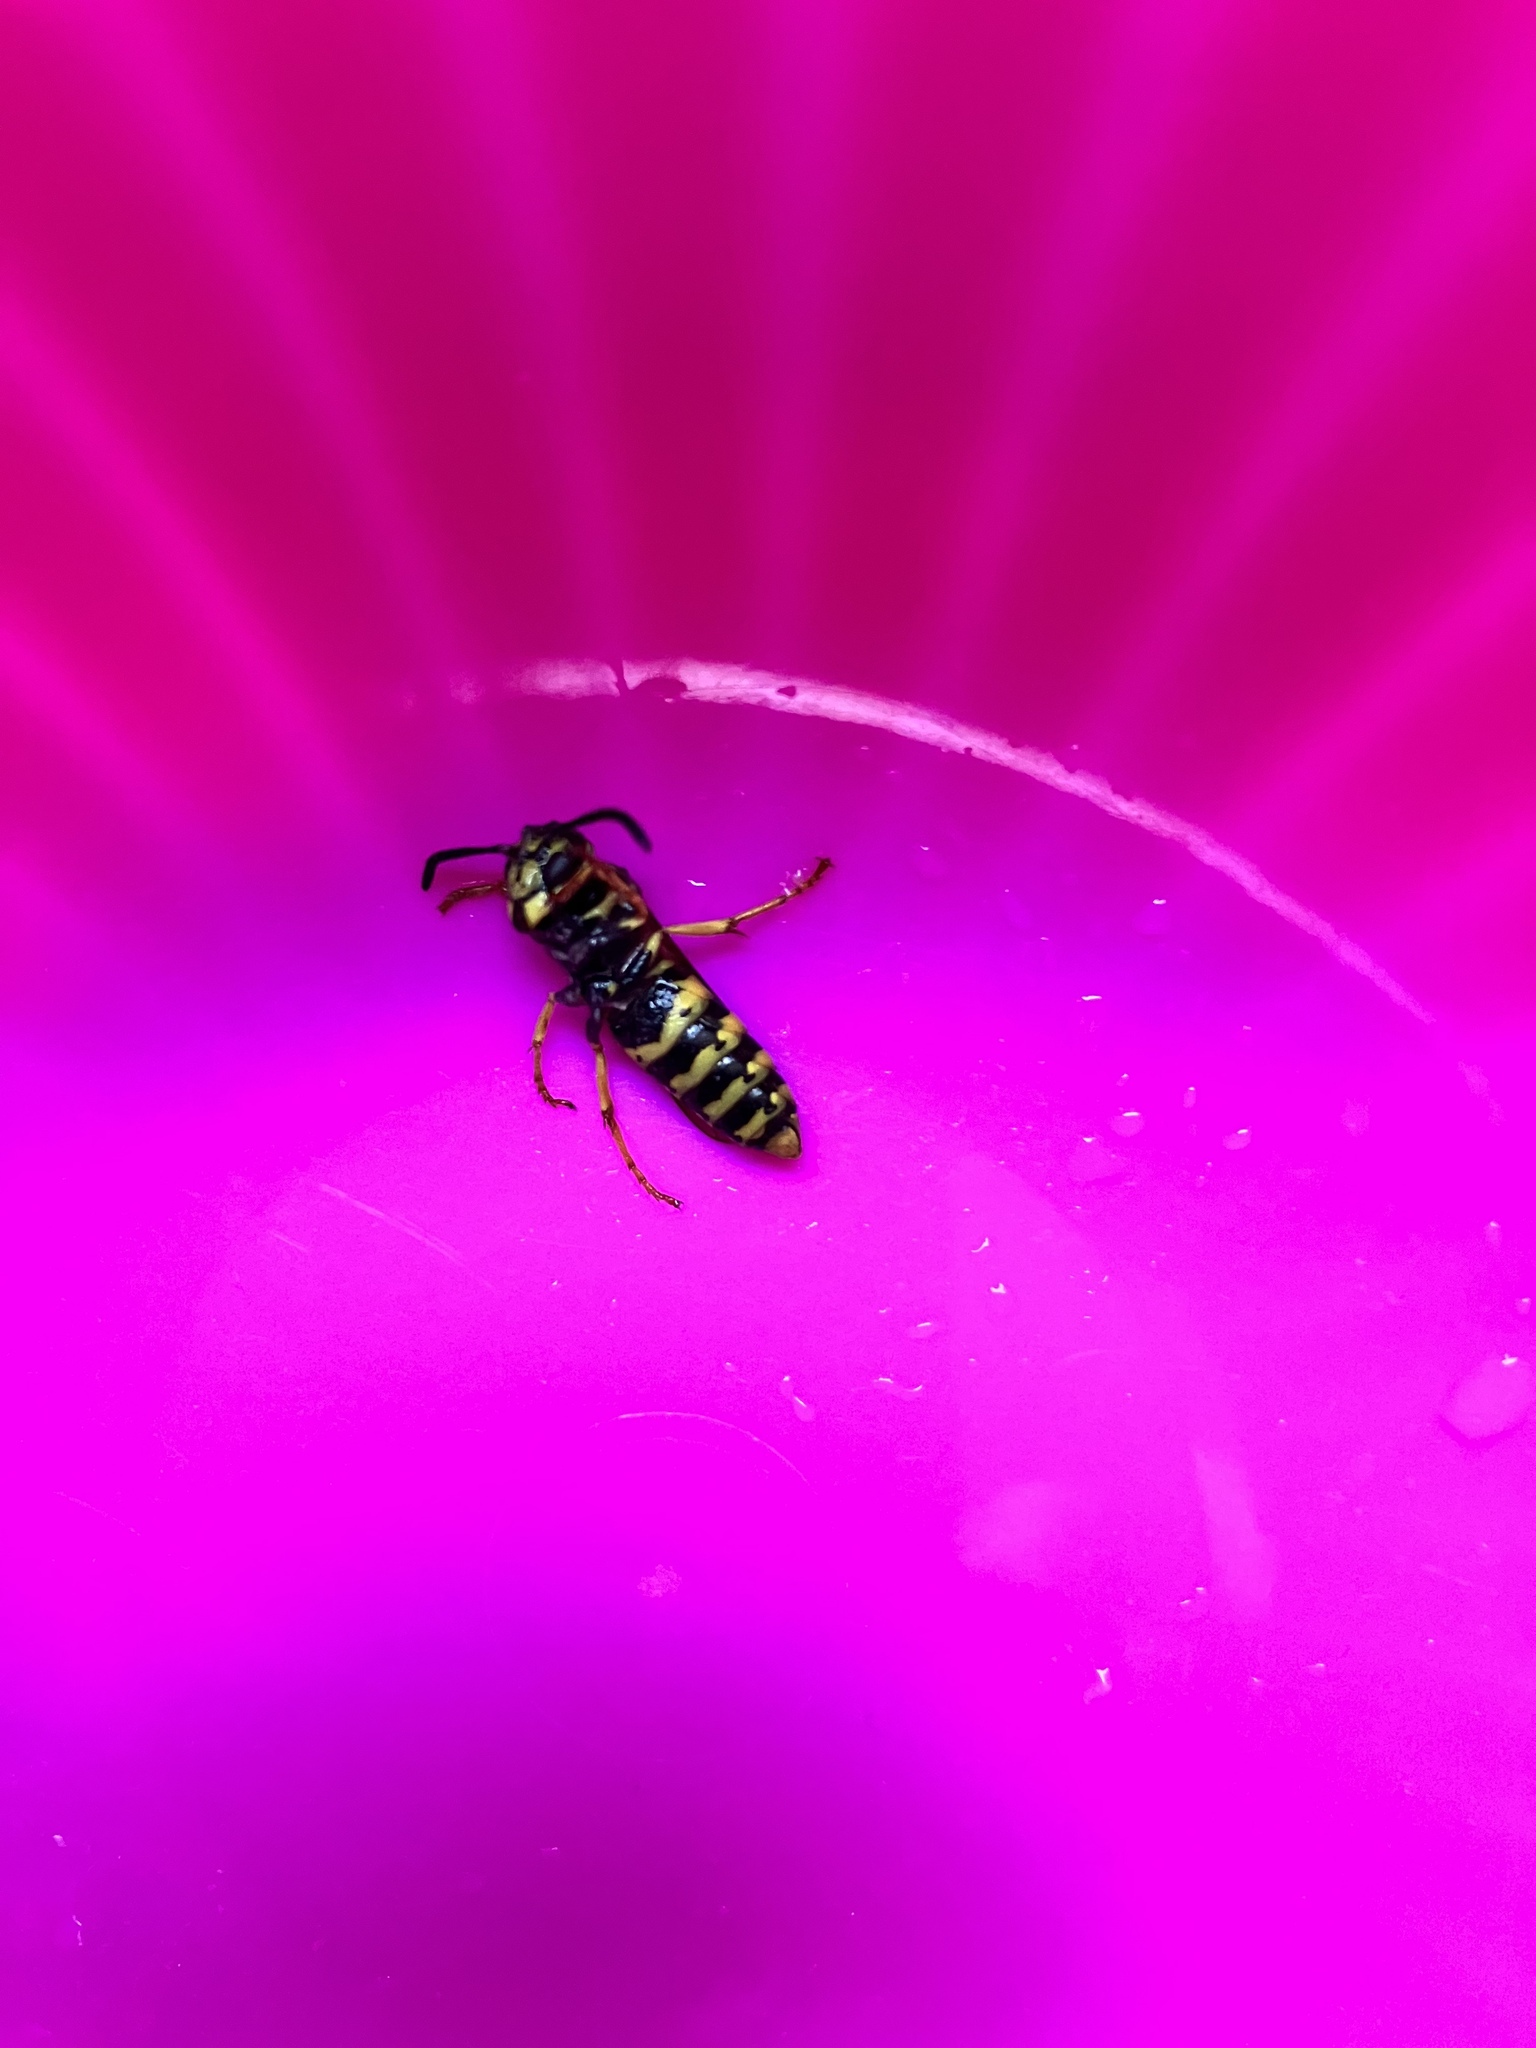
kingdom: Animalia
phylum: Arthropoda
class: Insecta
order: Hymenoptera
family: Vespidae
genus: Vespula
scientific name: Vespula germanica
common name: German wasp
